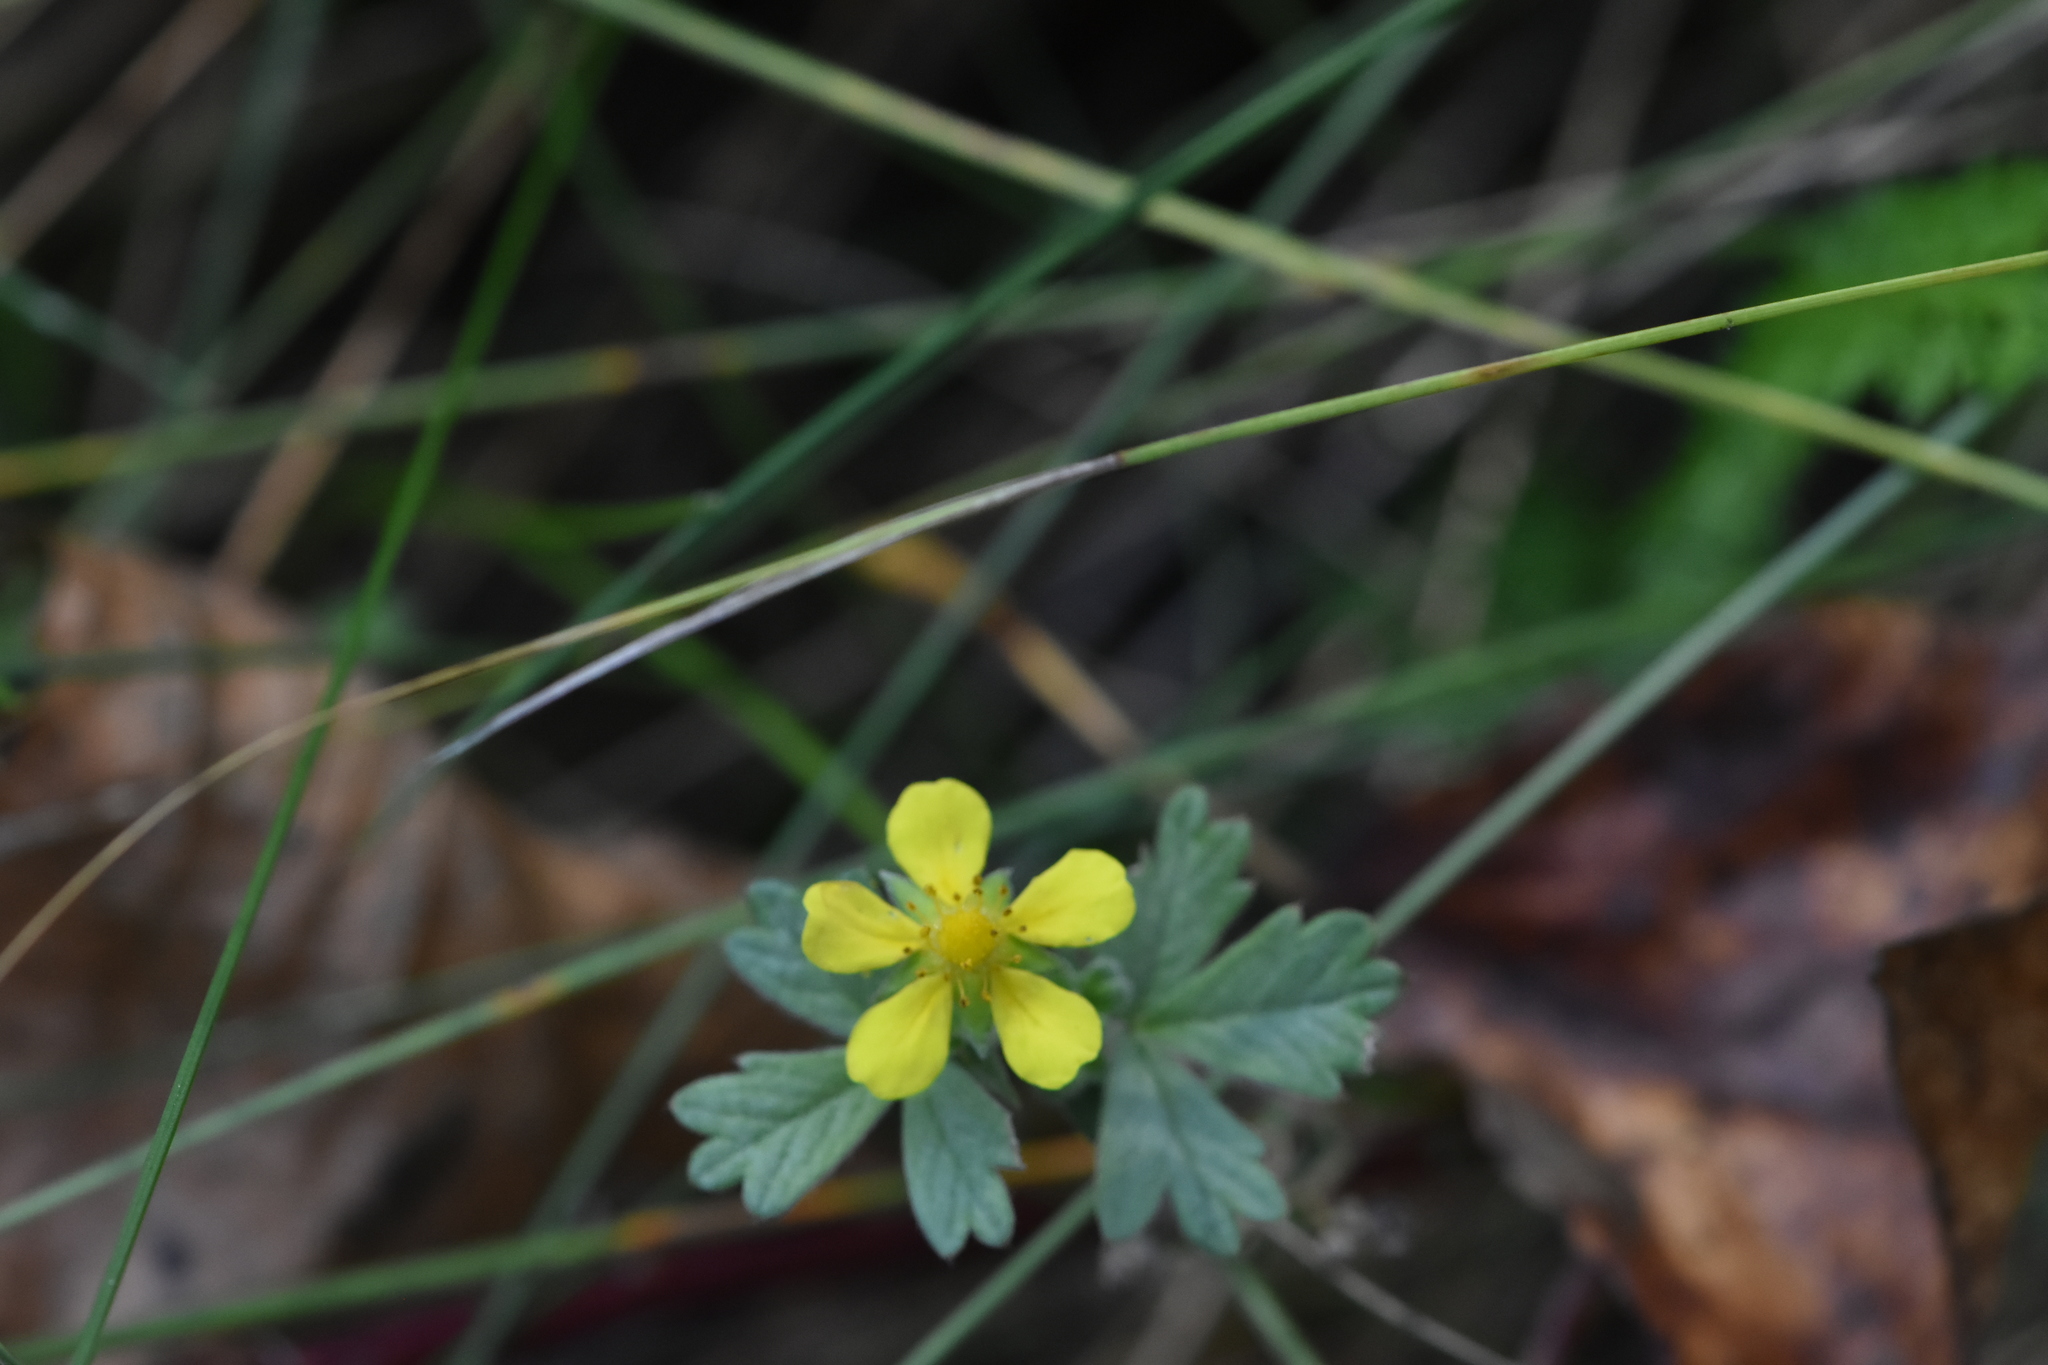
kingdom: Plantae
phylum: Tracheophyta
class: Magnoliopsida
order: Rosales
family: Rosaceae
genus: Potentilla
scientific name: Potentilla argentea
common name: Hoary cinquefoil
